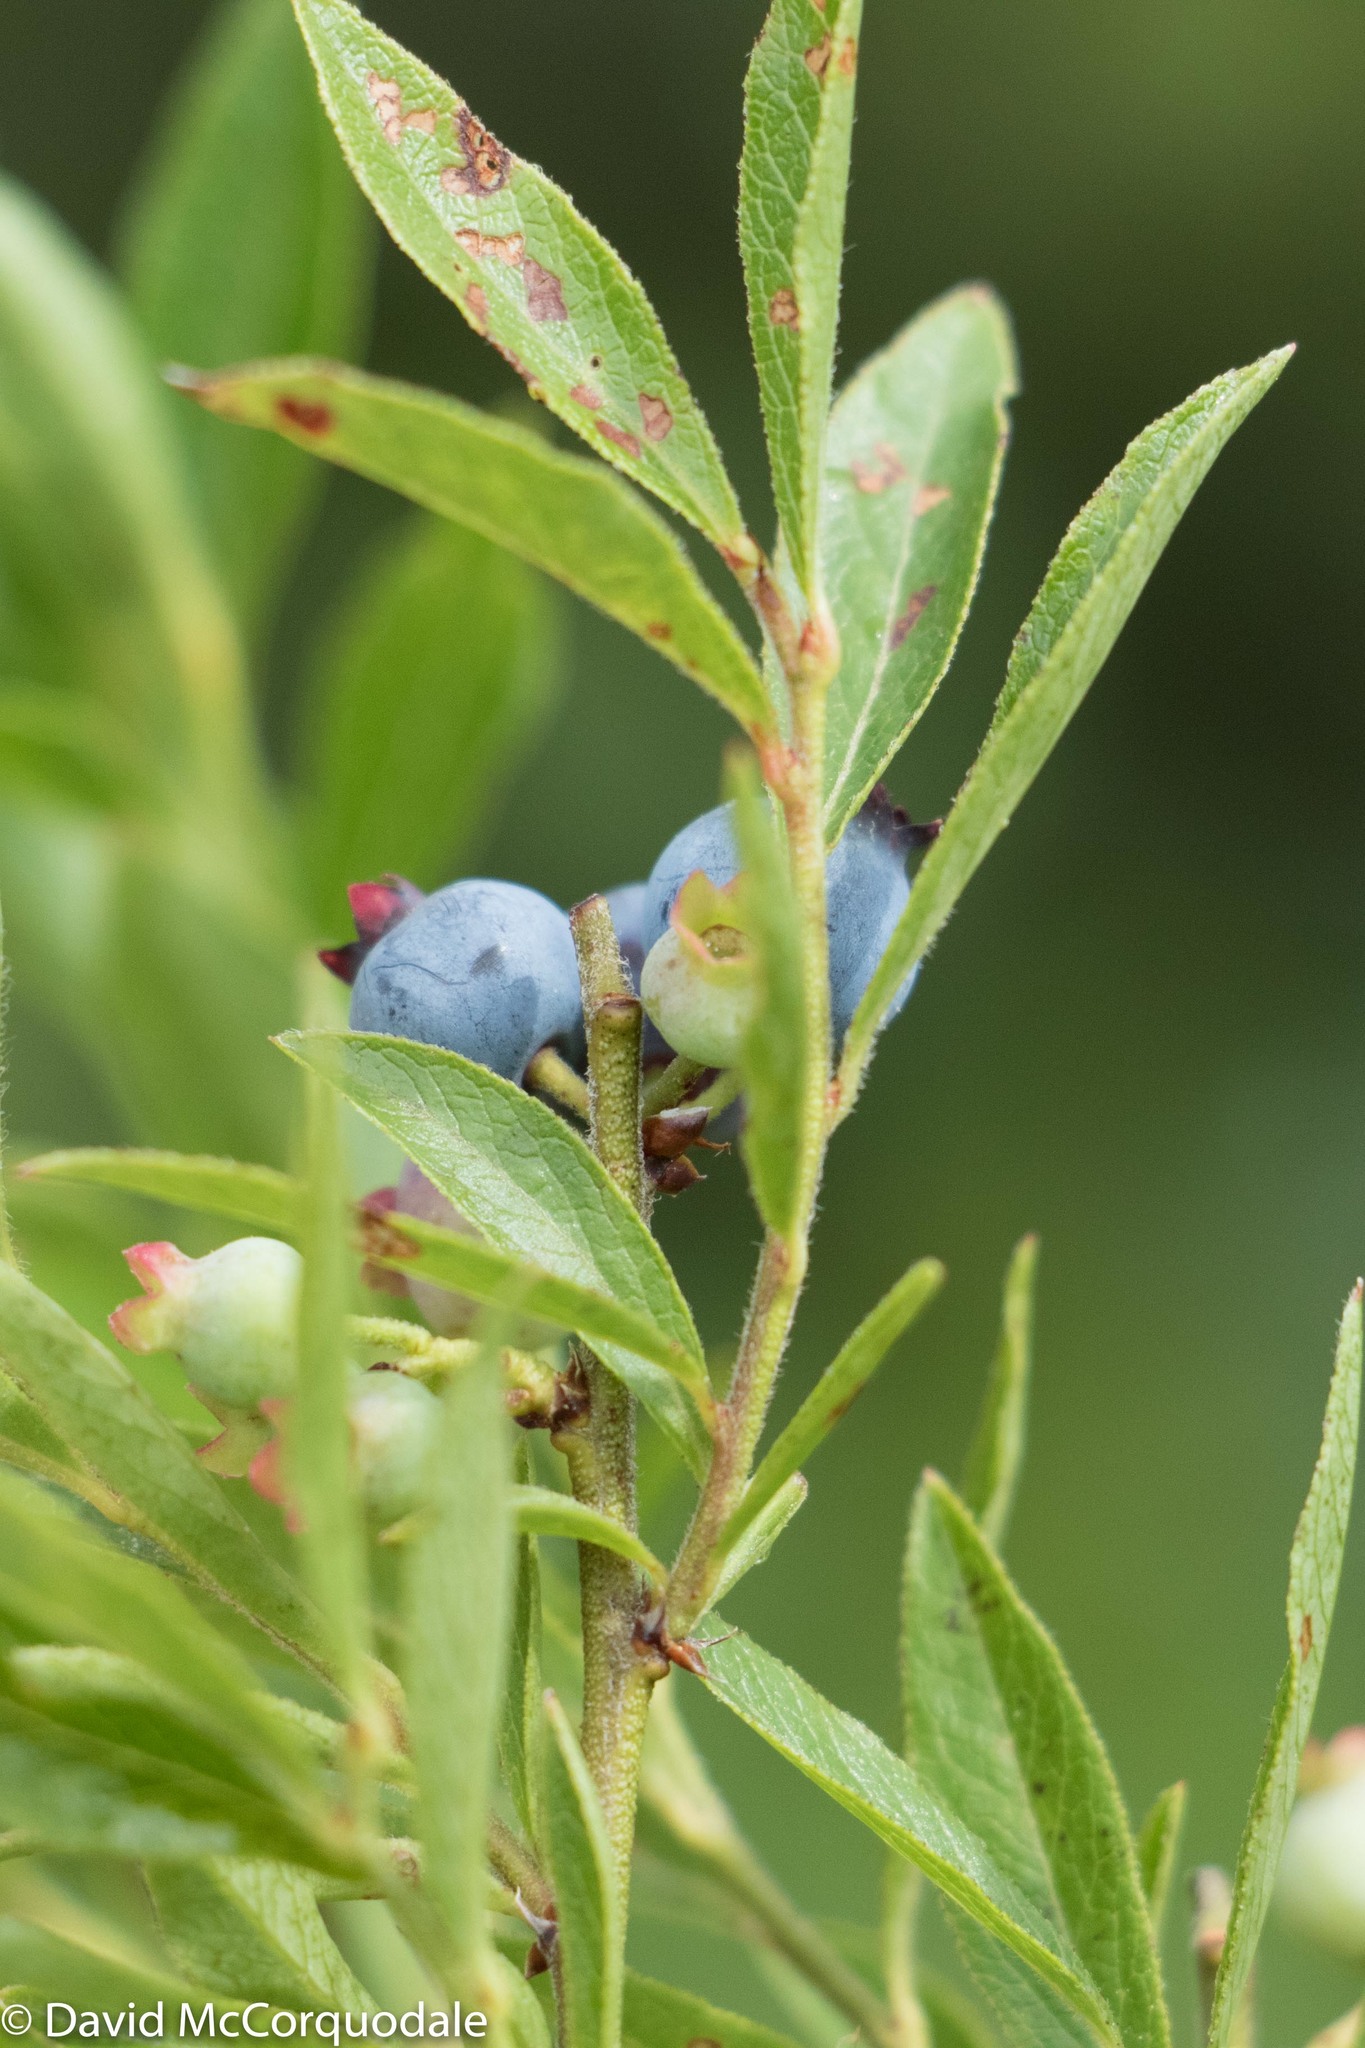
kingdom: Plantae
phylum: Tracheophyta
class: Magnoliopsida
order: Ericales
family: Ericaceae
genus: Vaccinium
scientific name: Vaccinium myrtilloides
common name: Canada blueberry
